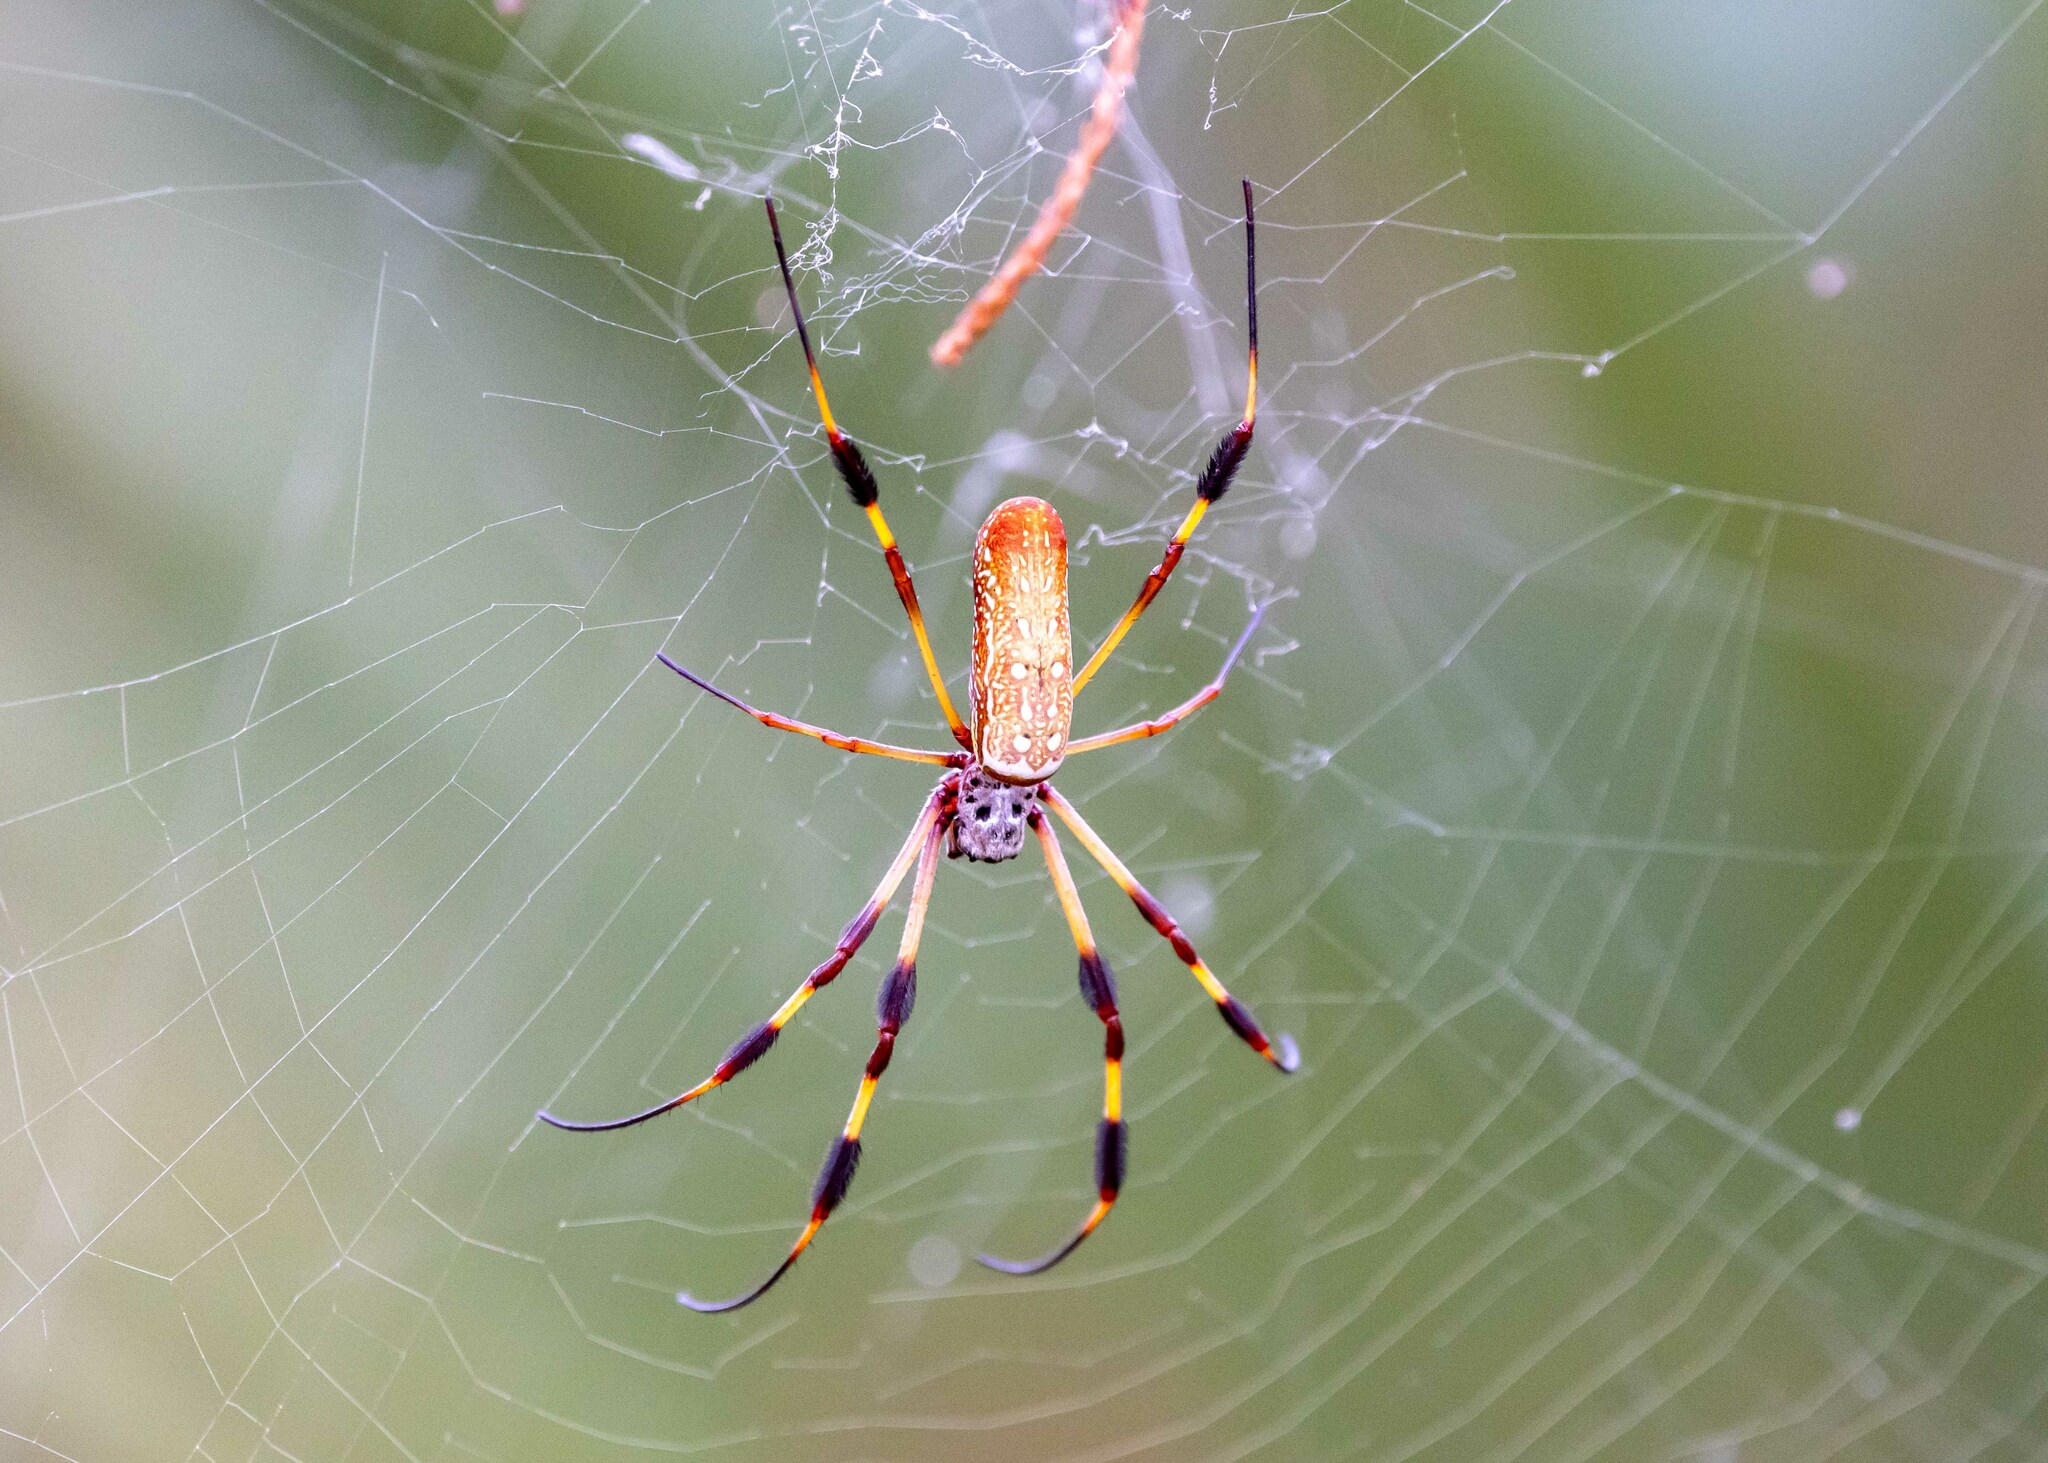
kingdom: Animalia
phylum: Arthropoda
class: Arachnida
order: Araneae
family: Araneidae
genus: Trichonephila
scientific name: Trichonephila clavipes
